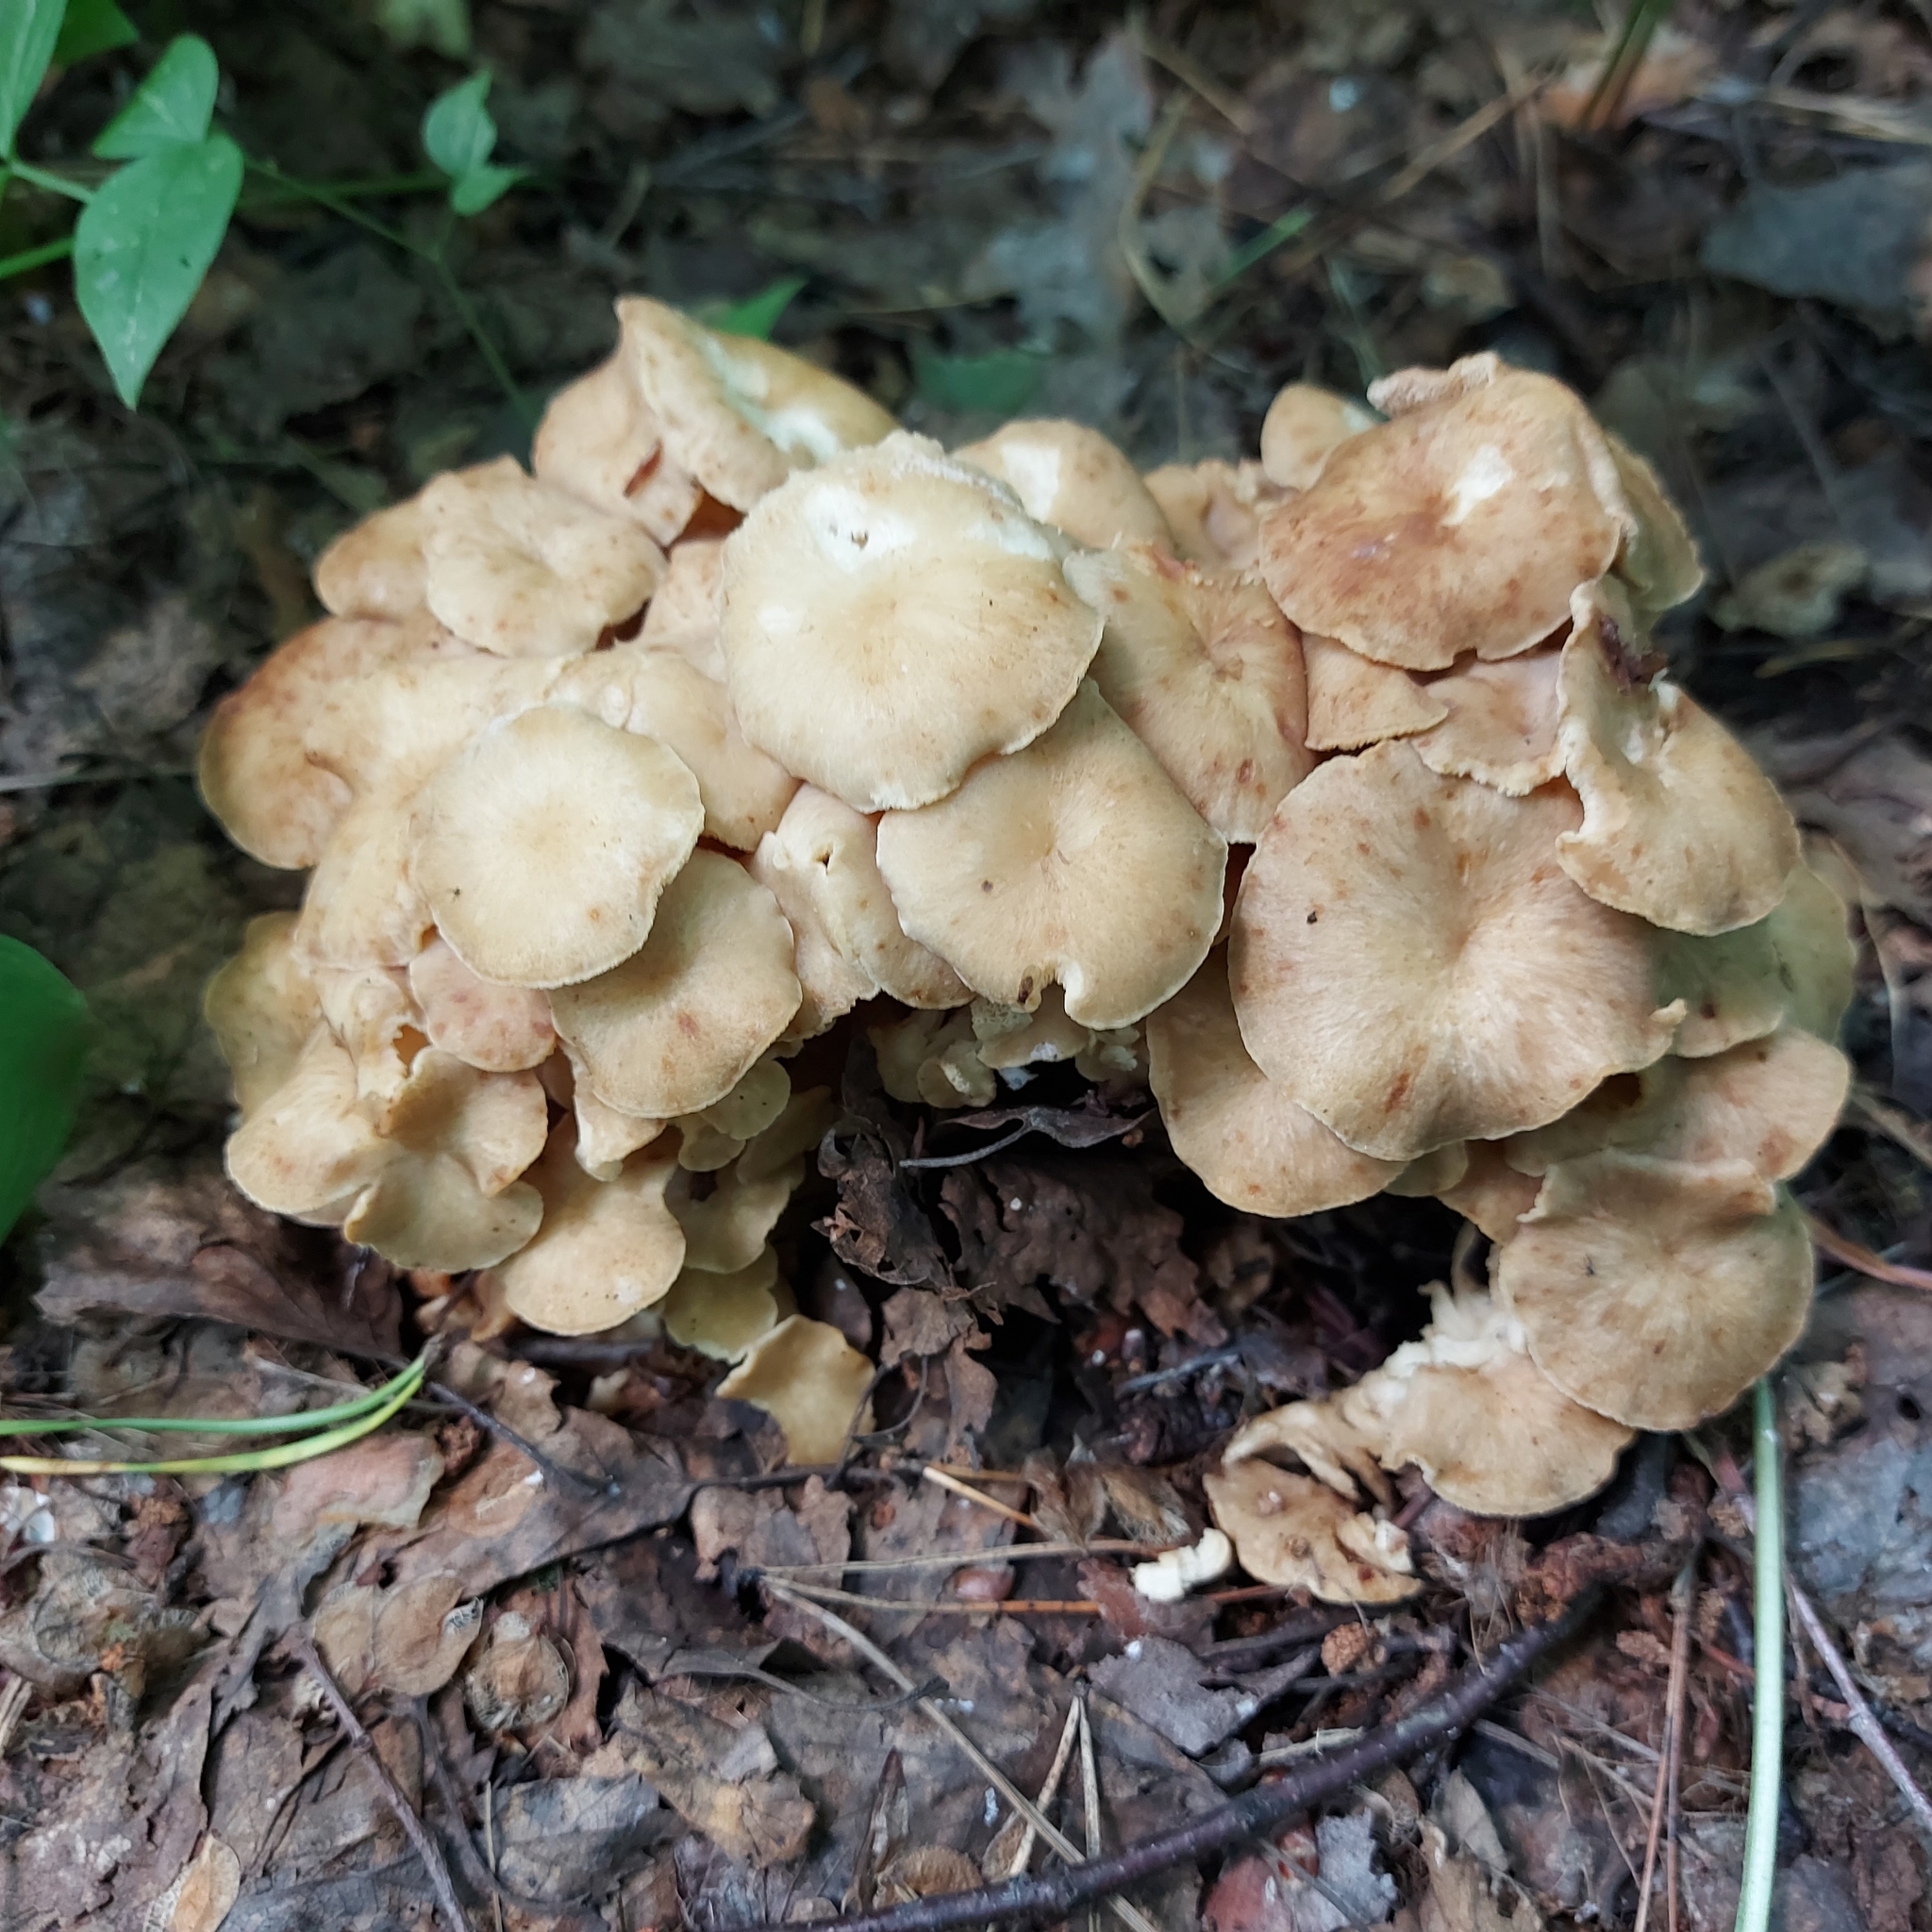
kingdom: Fungi
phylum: Basidiomycota
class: Agaricomycetes
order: Polyporales
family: Polyporaceae
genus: Polyporus
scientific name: Polyporus umbellatus
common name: Umbrella polypore
